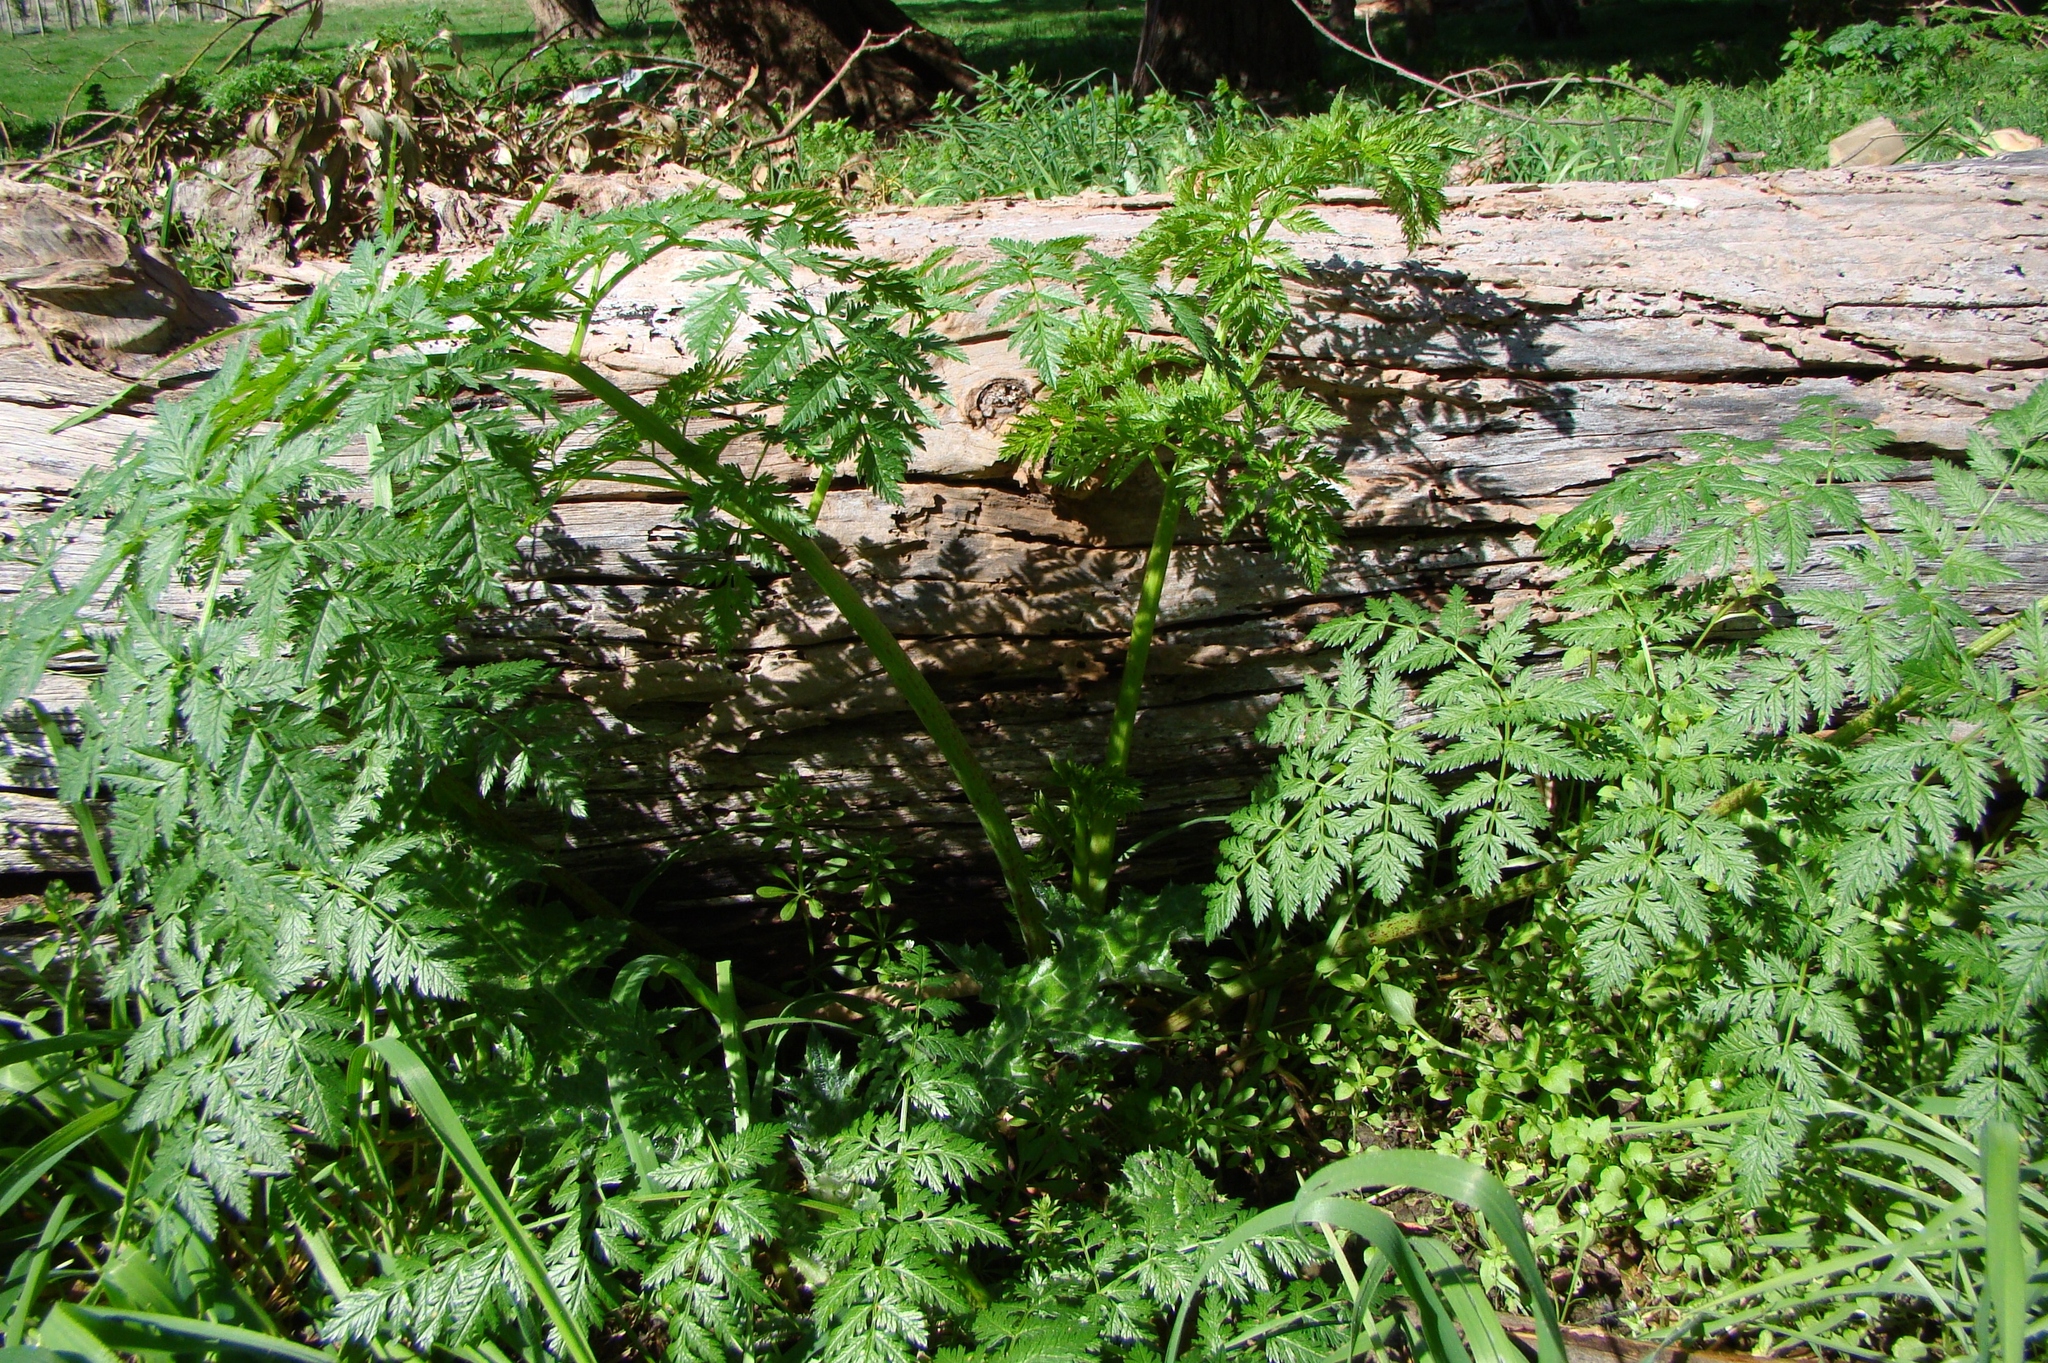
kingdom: Plantae
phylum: Tracheophyta
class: Magnoliopsida
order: Apiales
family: Apiaceae
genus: Conium
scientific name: Conium maculatum
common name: Hemlock
